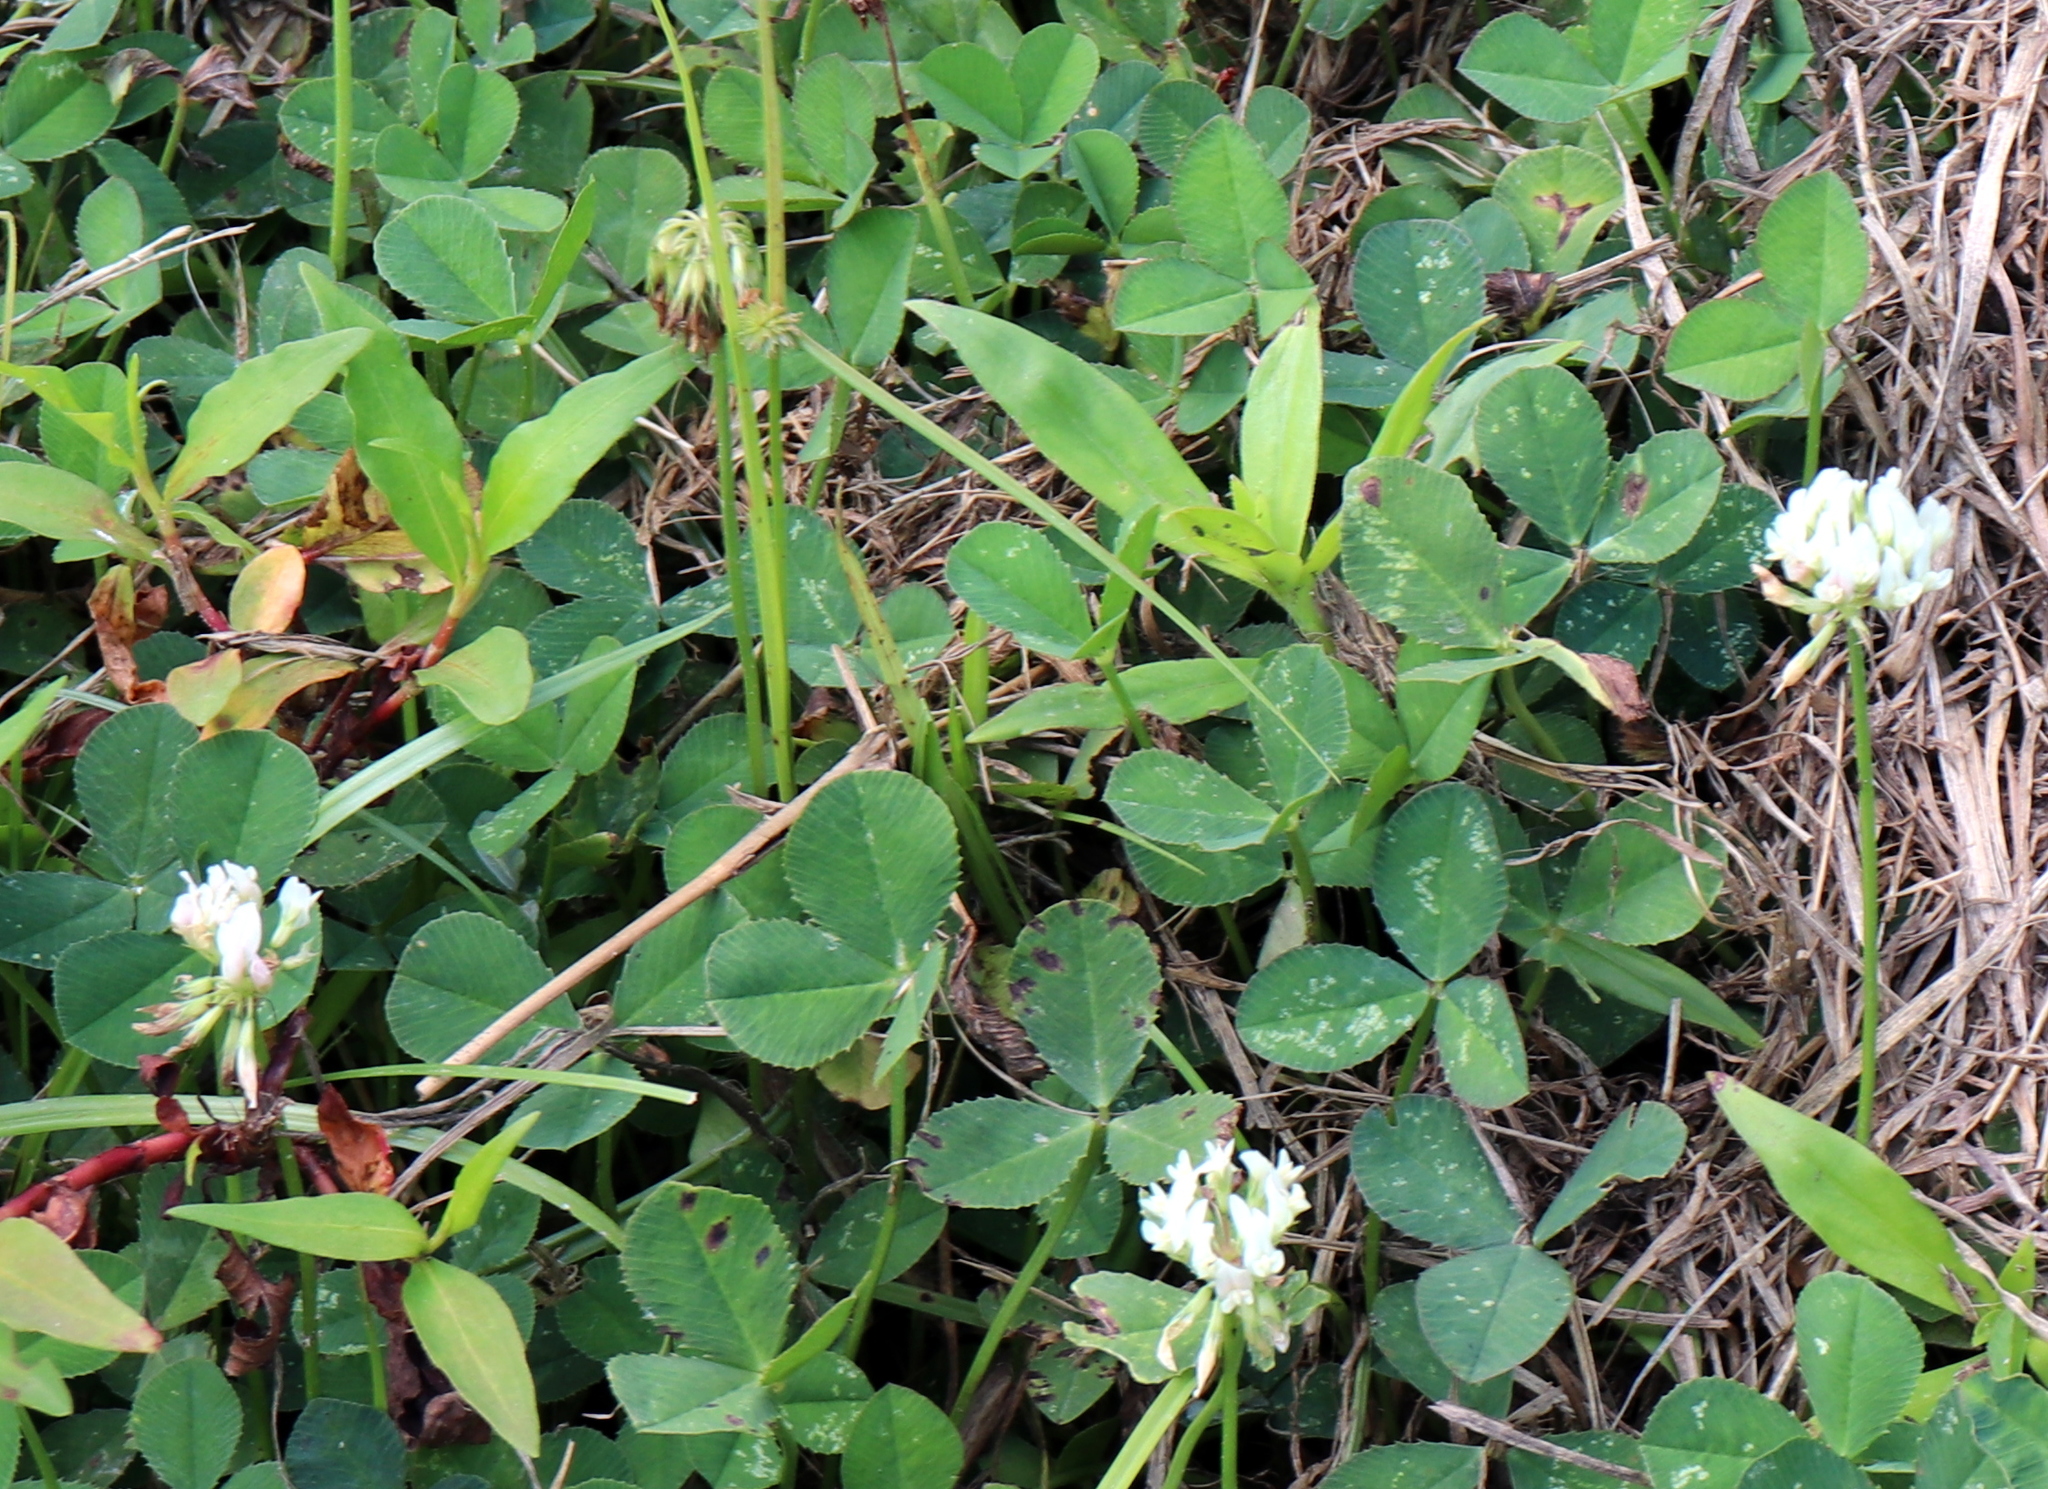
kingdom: Plantae
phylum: Tracheophyta
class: Magnoliopsida
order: Fabales
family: Fabaceae
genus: Trifolium
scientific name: Trifolium repens
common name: White clover
